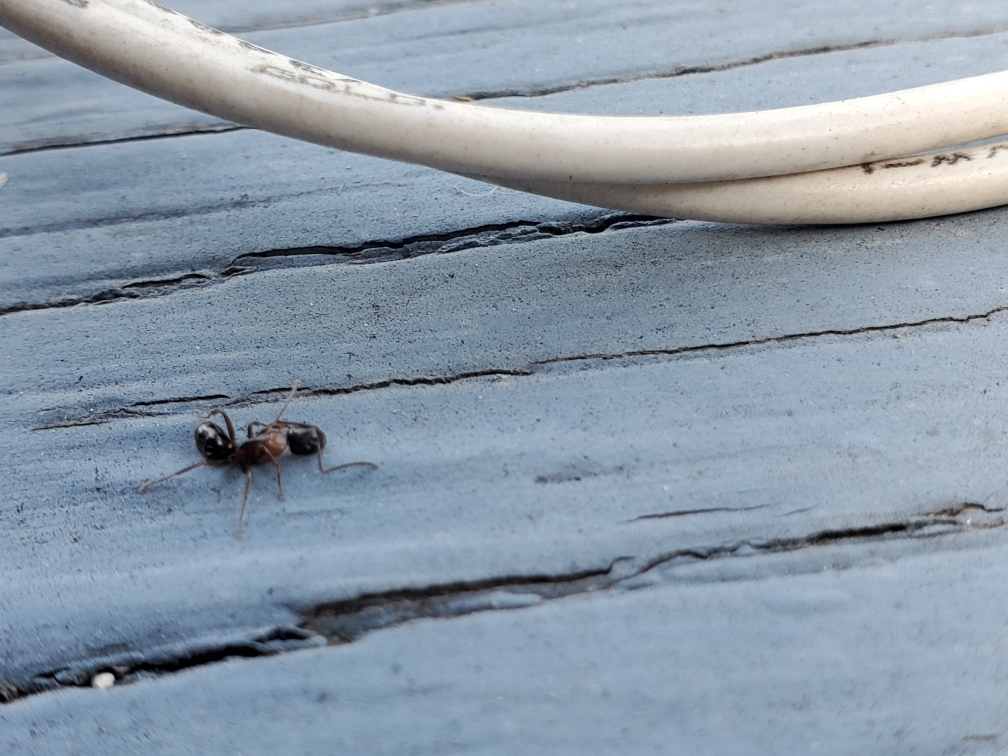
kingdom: Animalia
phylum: Arthropoda
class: Insecta
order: Hymenoptera
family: Formicidae
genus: Camponotus
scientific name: Camponotus nearcticus
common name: Smaller carpenter ant
